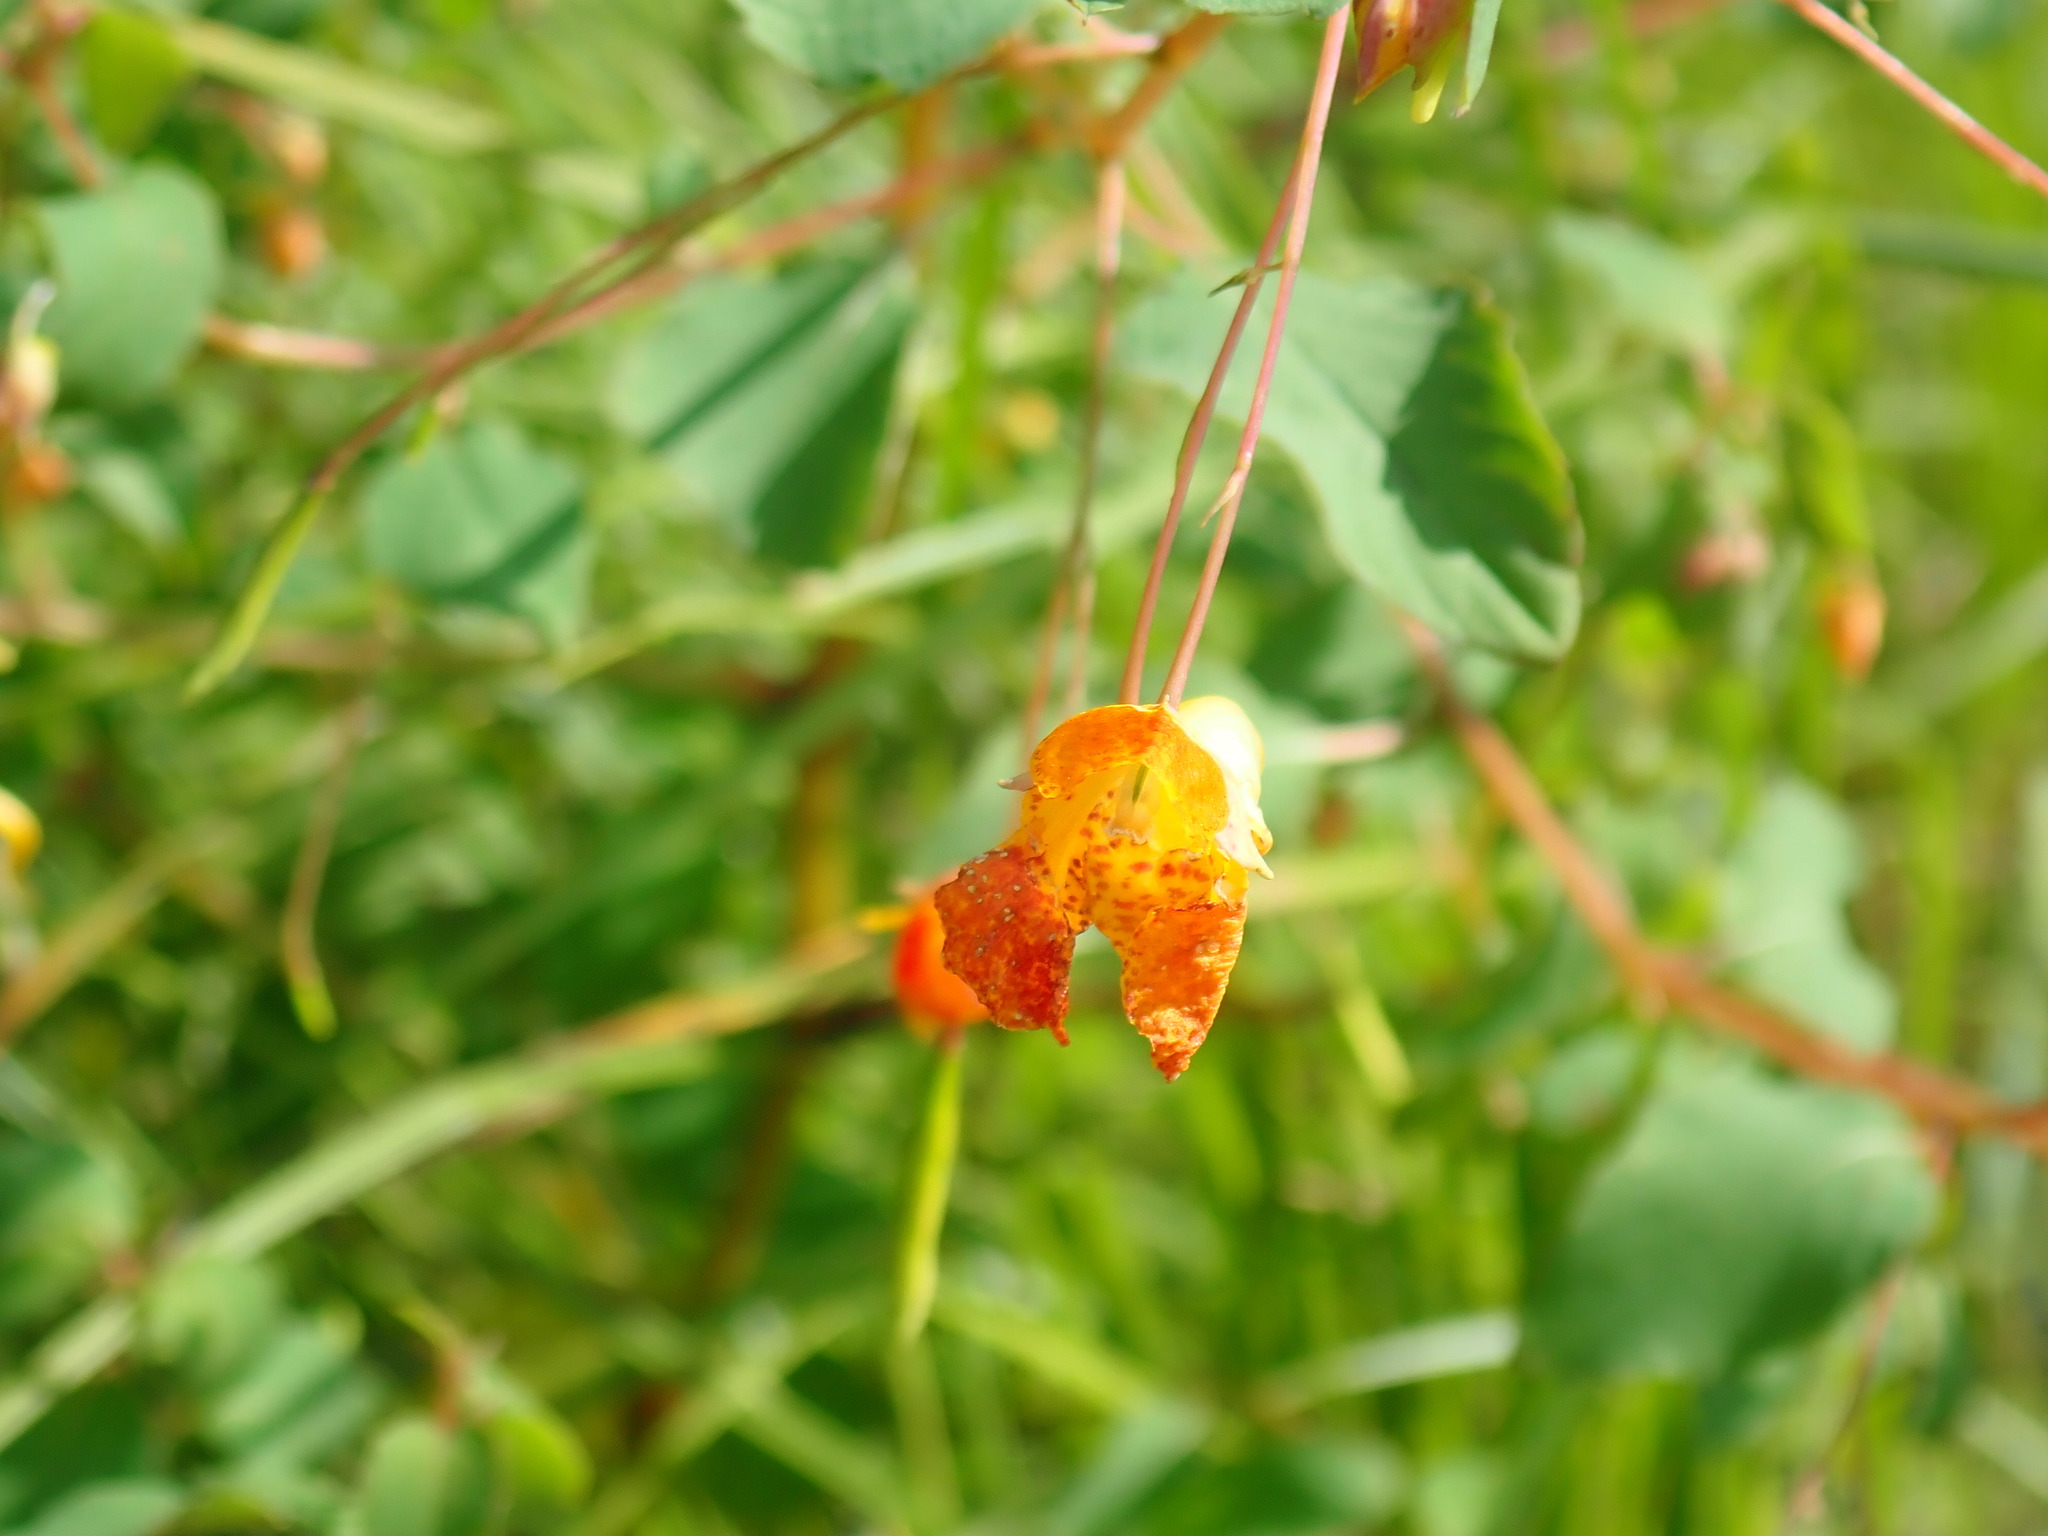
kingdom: Plantae
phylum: Tracheophyta
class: Magnoliopsida
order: Ericales
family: Balsaminaceae
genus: Impatiens
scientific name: Impatiens capensis
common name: Orange balsam
